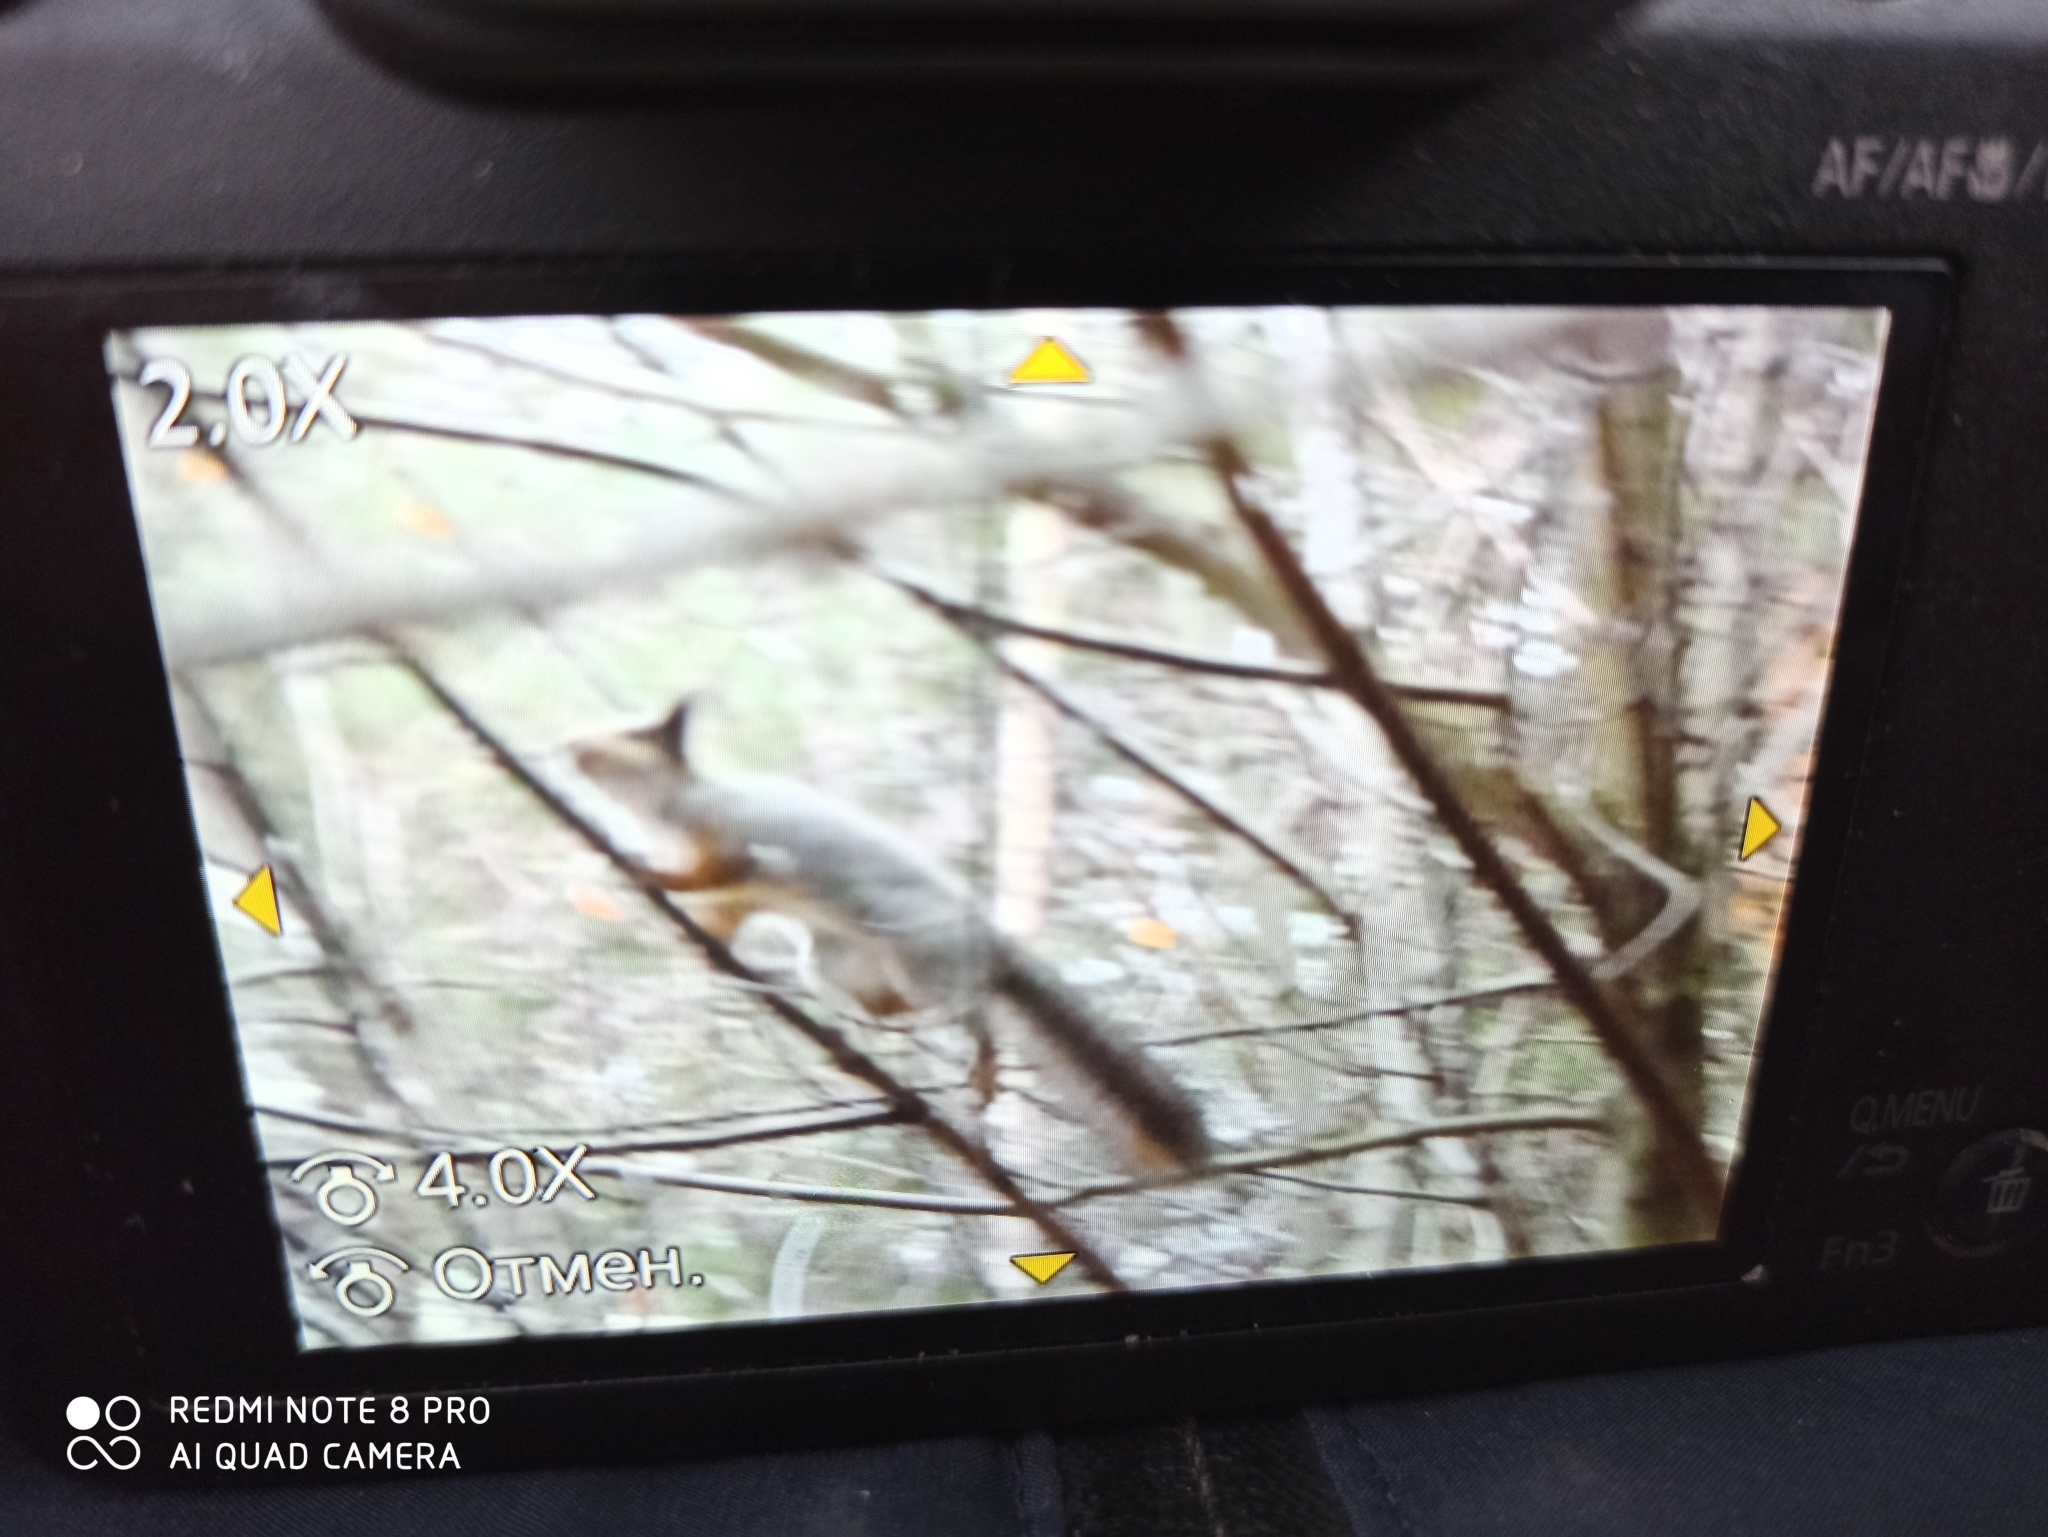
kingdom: Animalia
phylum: Chordata
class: Mammalia
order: Rodentia
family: Sciuridae
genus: Sciurus
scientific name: Sciurus vulgaris
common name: Eurasian red squirrel
